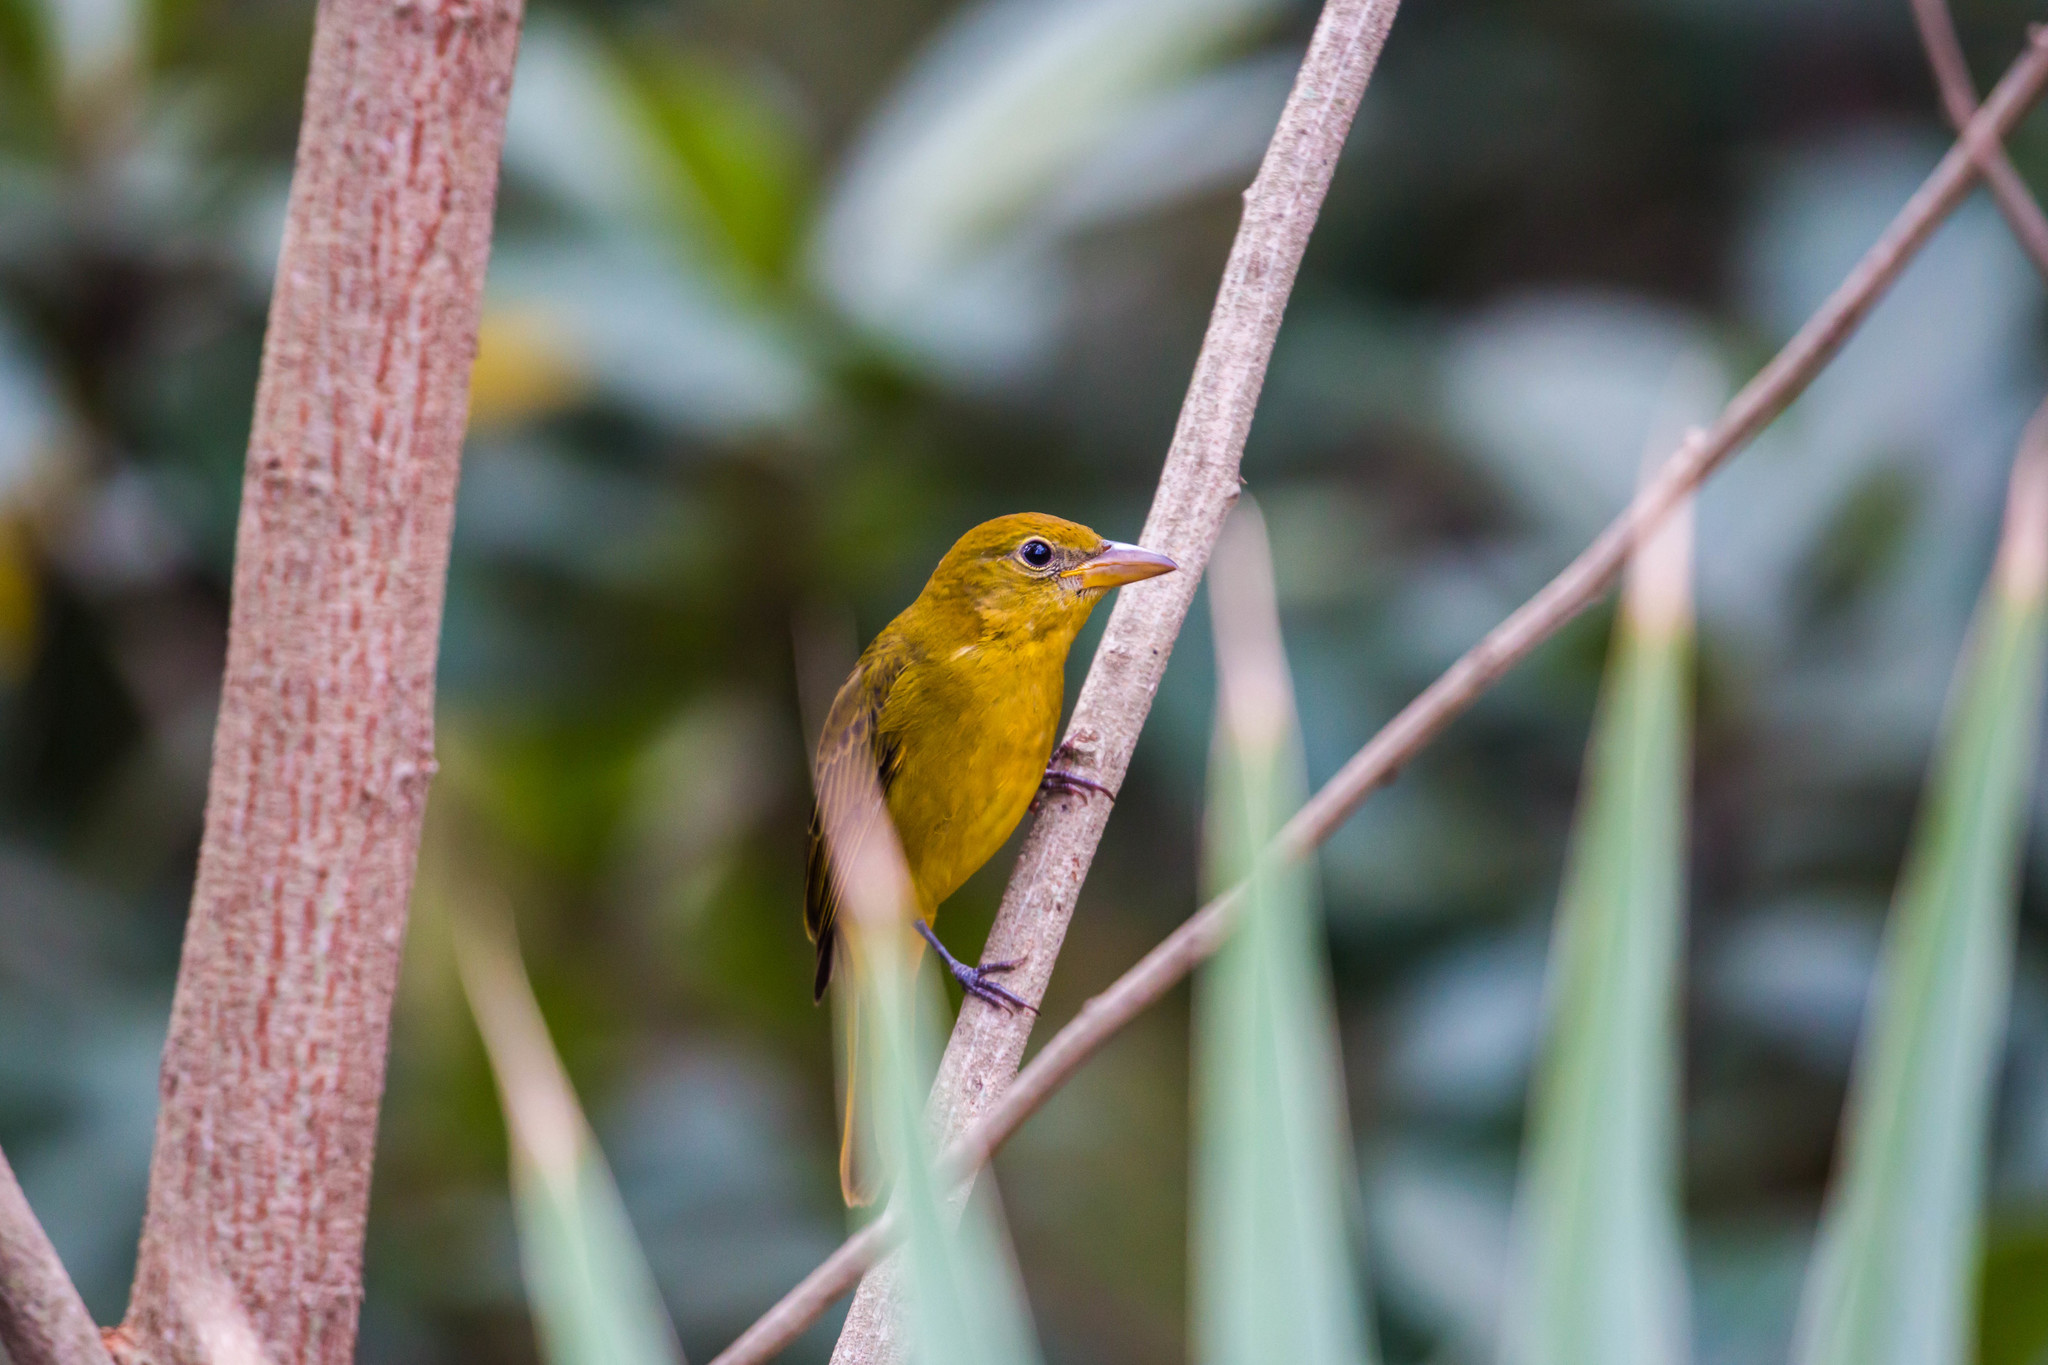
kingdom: Animalia
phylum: Chordata
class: Aves
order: Passeriformes
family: Cardinalidae
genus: Piranga
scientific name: Piranga rubra
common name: Summer tanager
